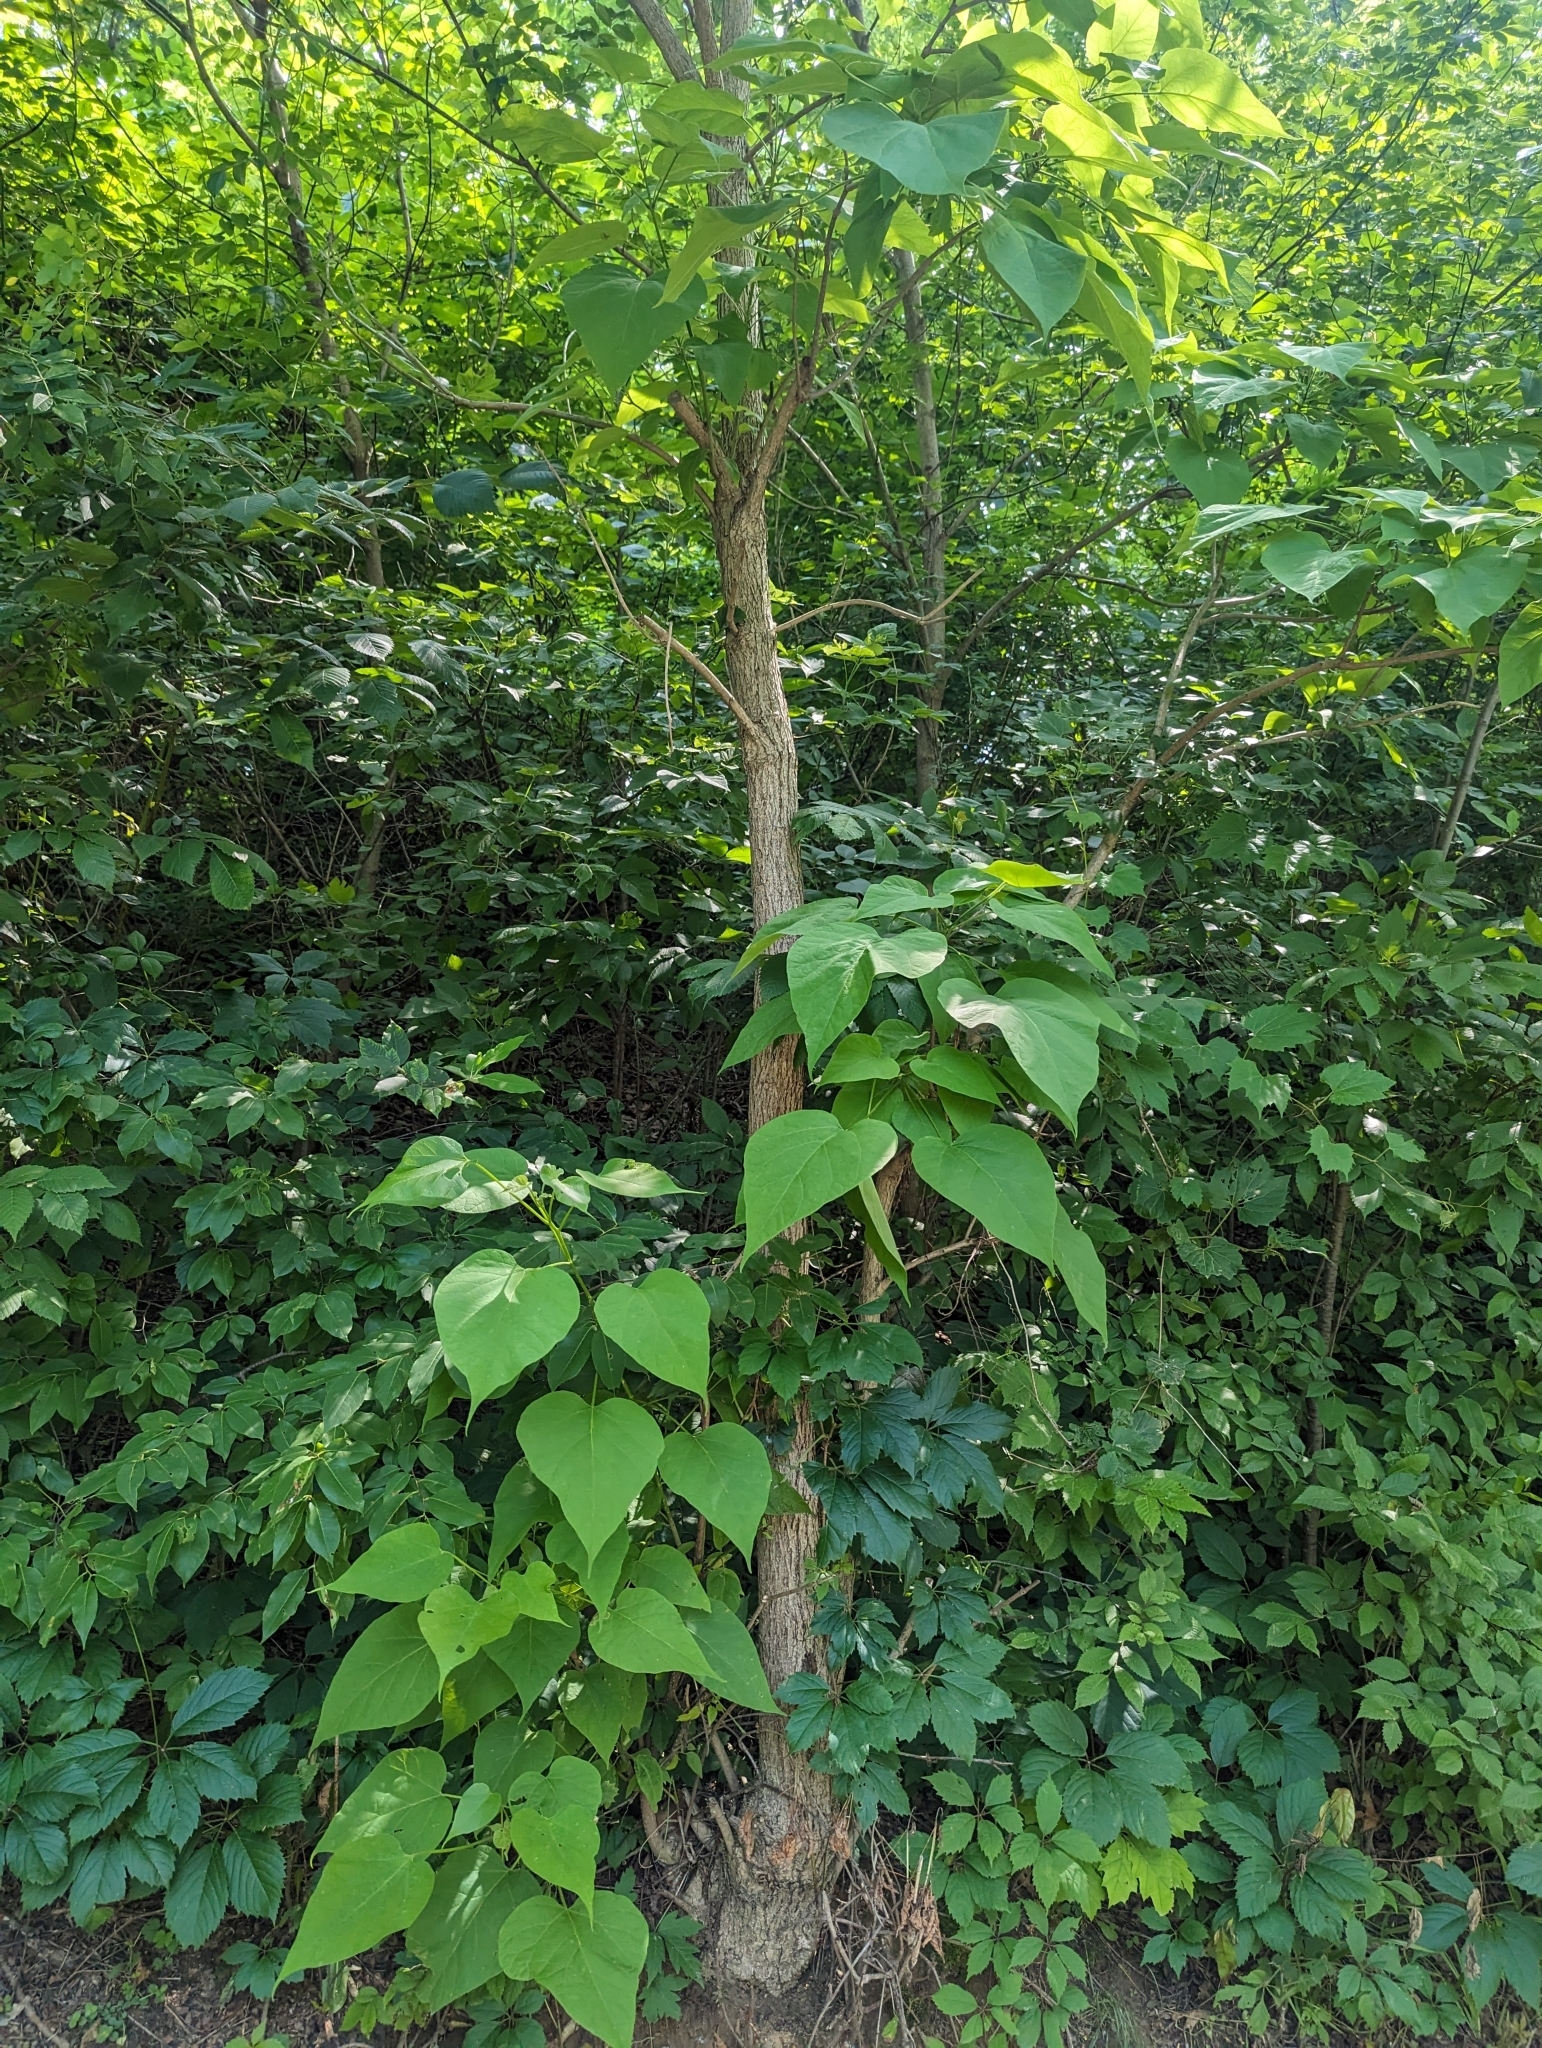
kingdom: Plantae
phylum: Tracheophyta
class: Magnoliopsida
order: Lamiales
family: Bignoniaceae
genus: Catalpa
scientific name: Catalpa speciosa
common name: Northern catalpa
